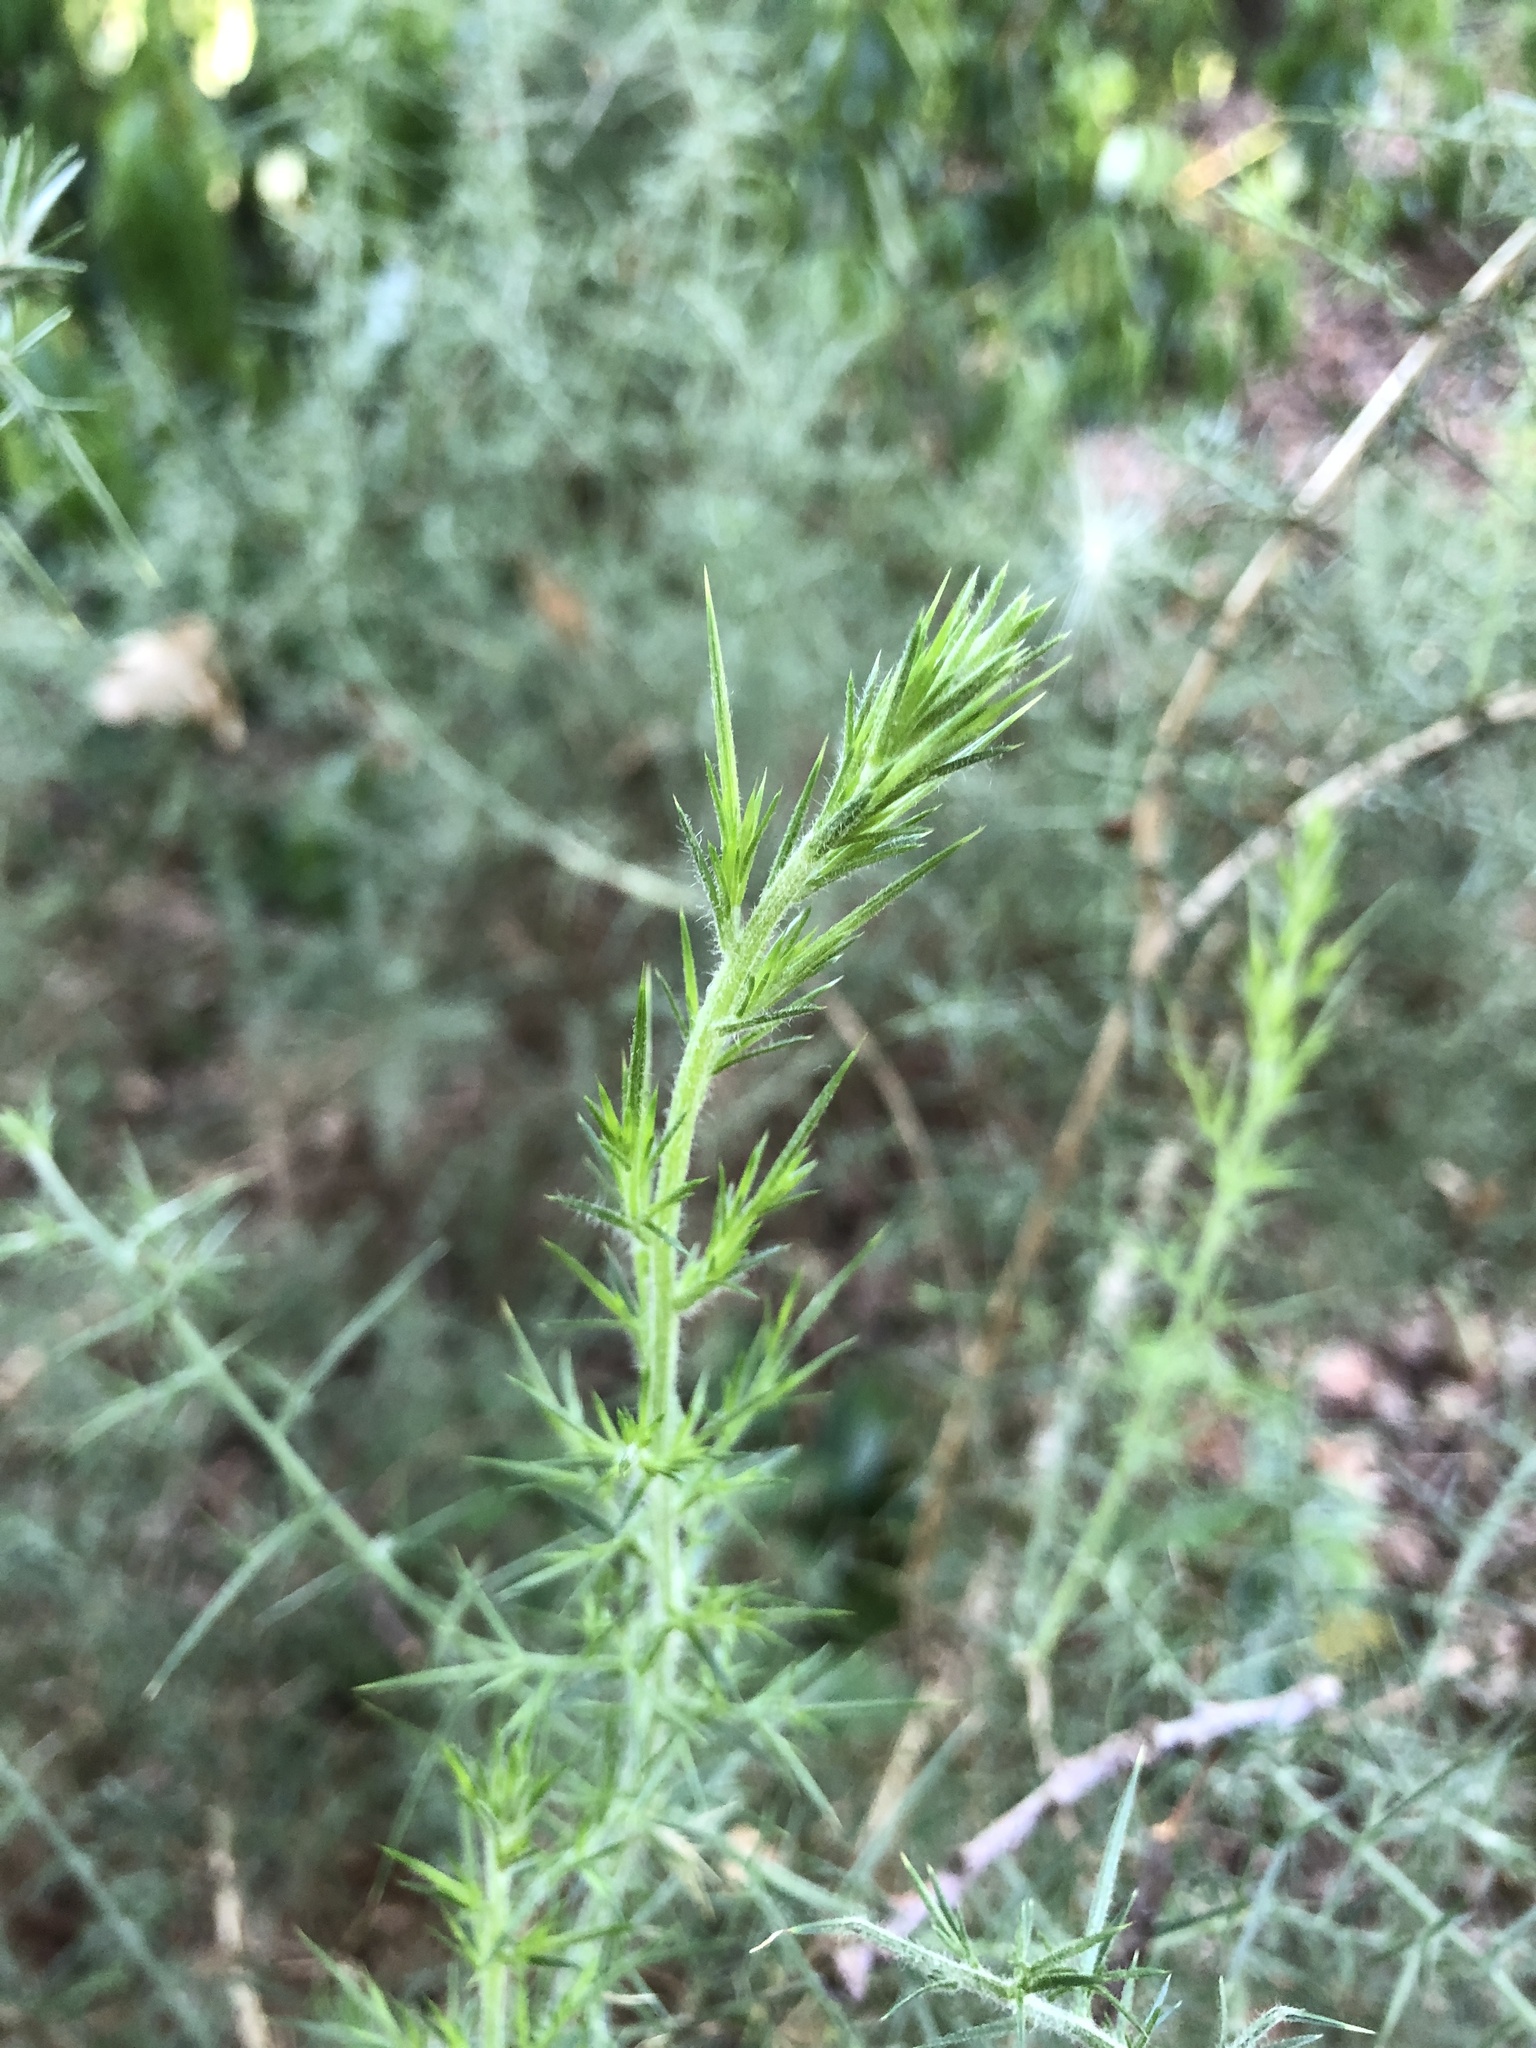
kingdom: Plantae
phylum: Tracheophyta
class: Magnoliopsida
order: Fabales
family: Fabaceae
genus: Ulex
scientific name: Ulex europaeus
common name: Common gorse
